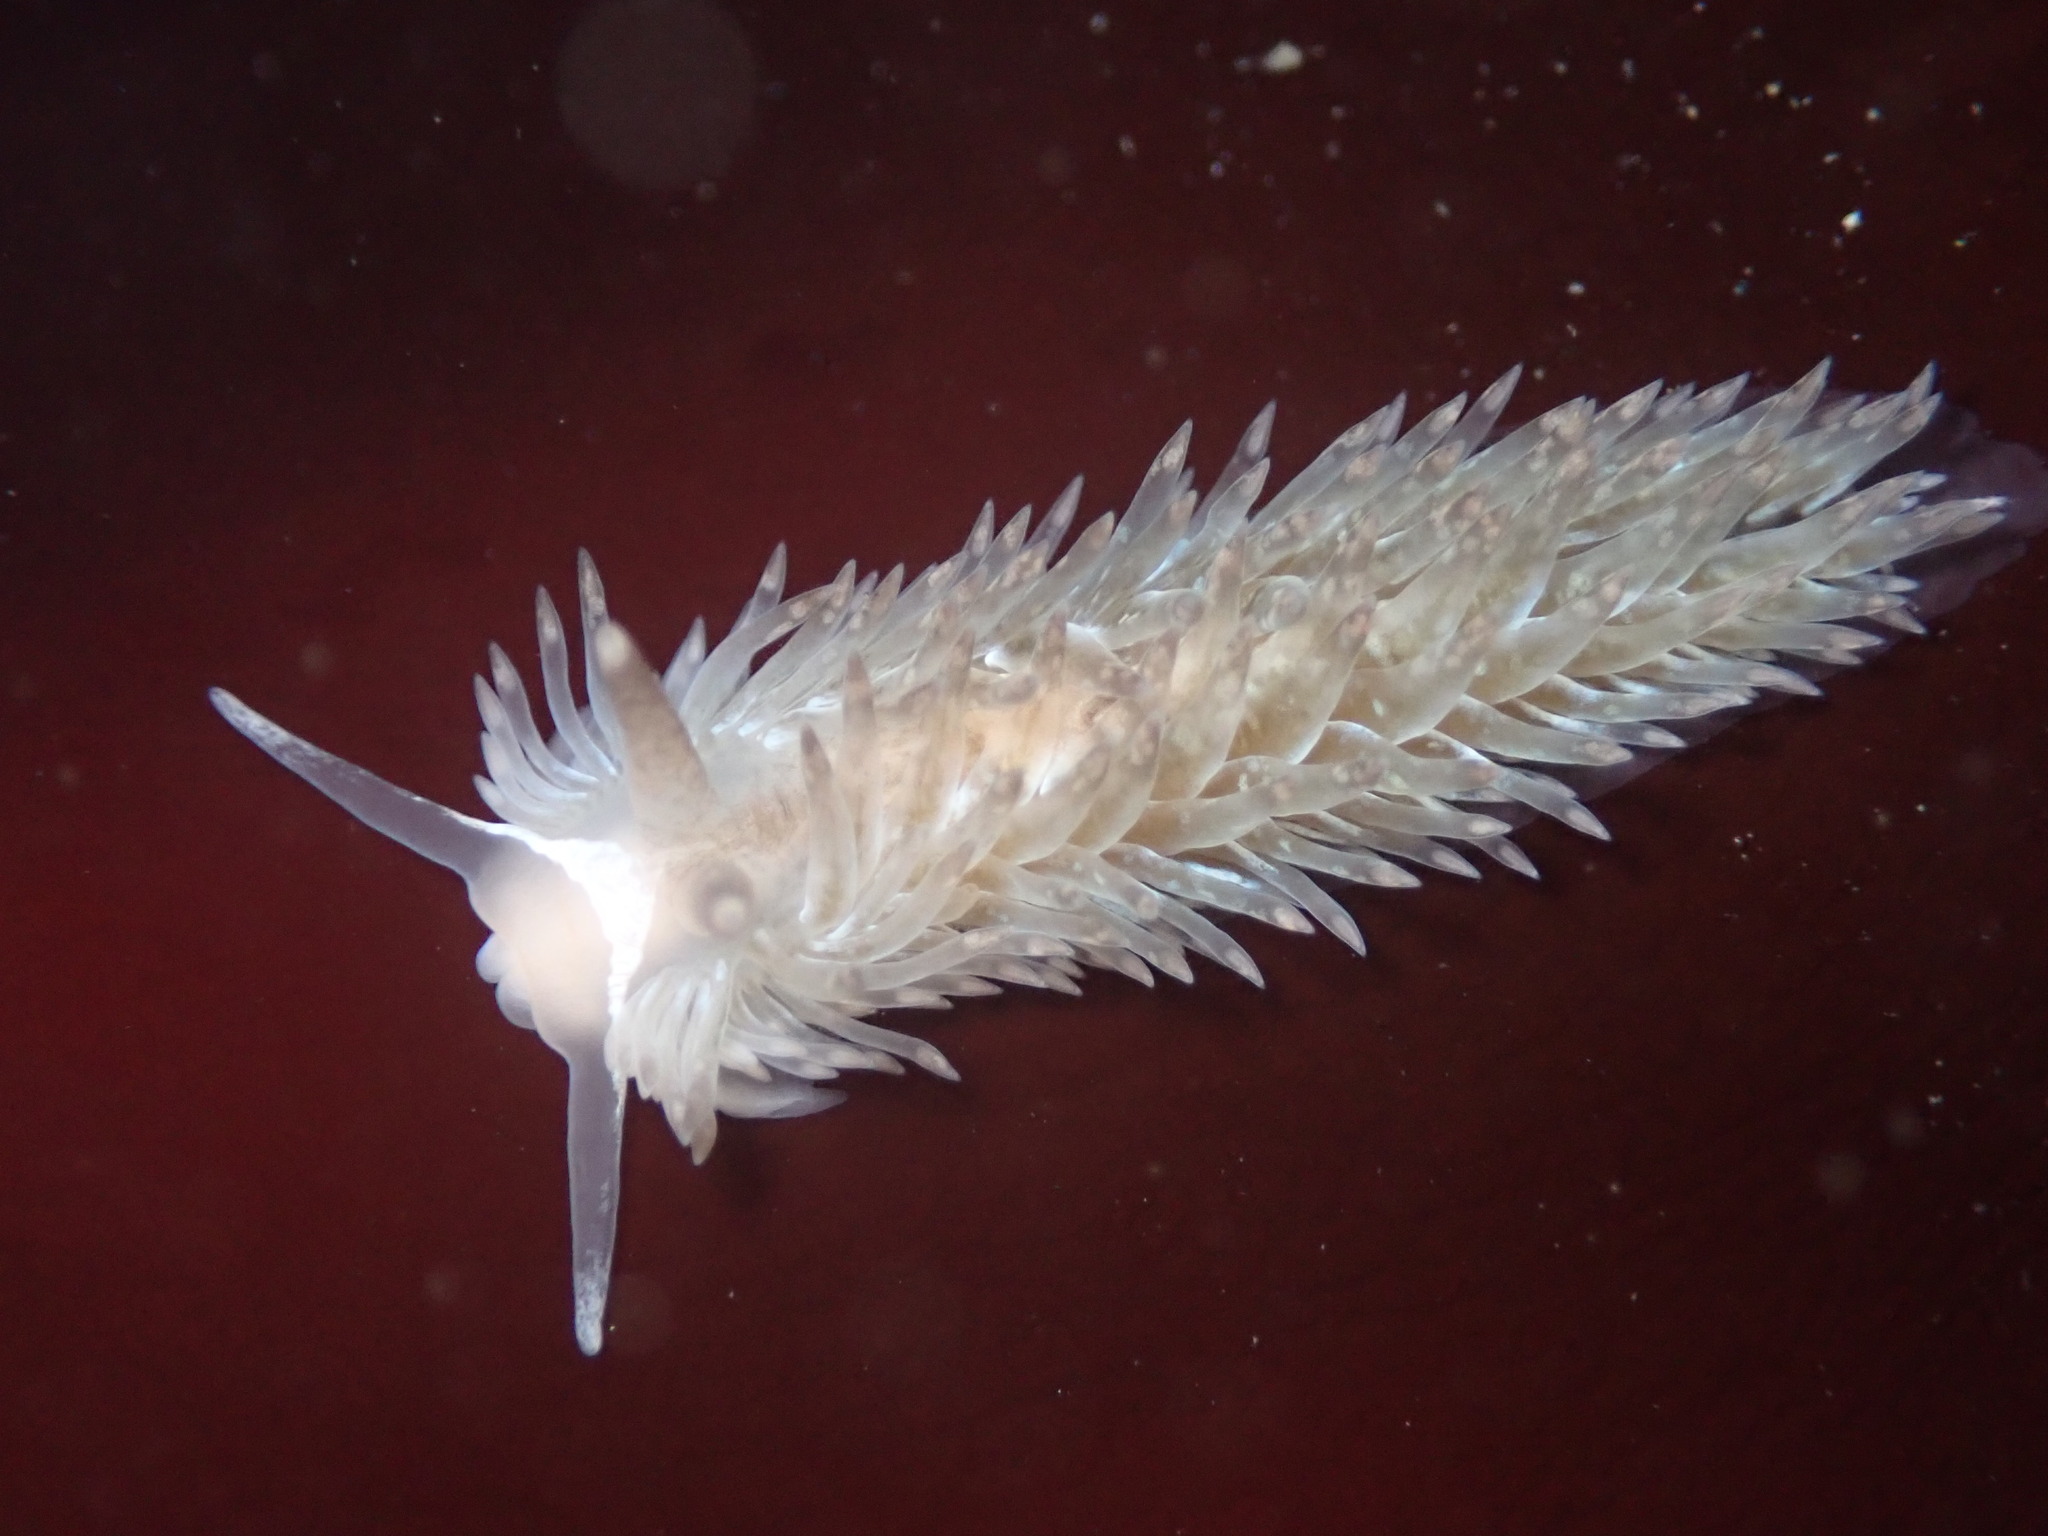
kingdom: Animalia
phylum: Mollusca
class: Gastropoda
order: Nudibranchia
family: Aeolidiidae
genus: Aeolidia
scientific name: Aeolidia loui
